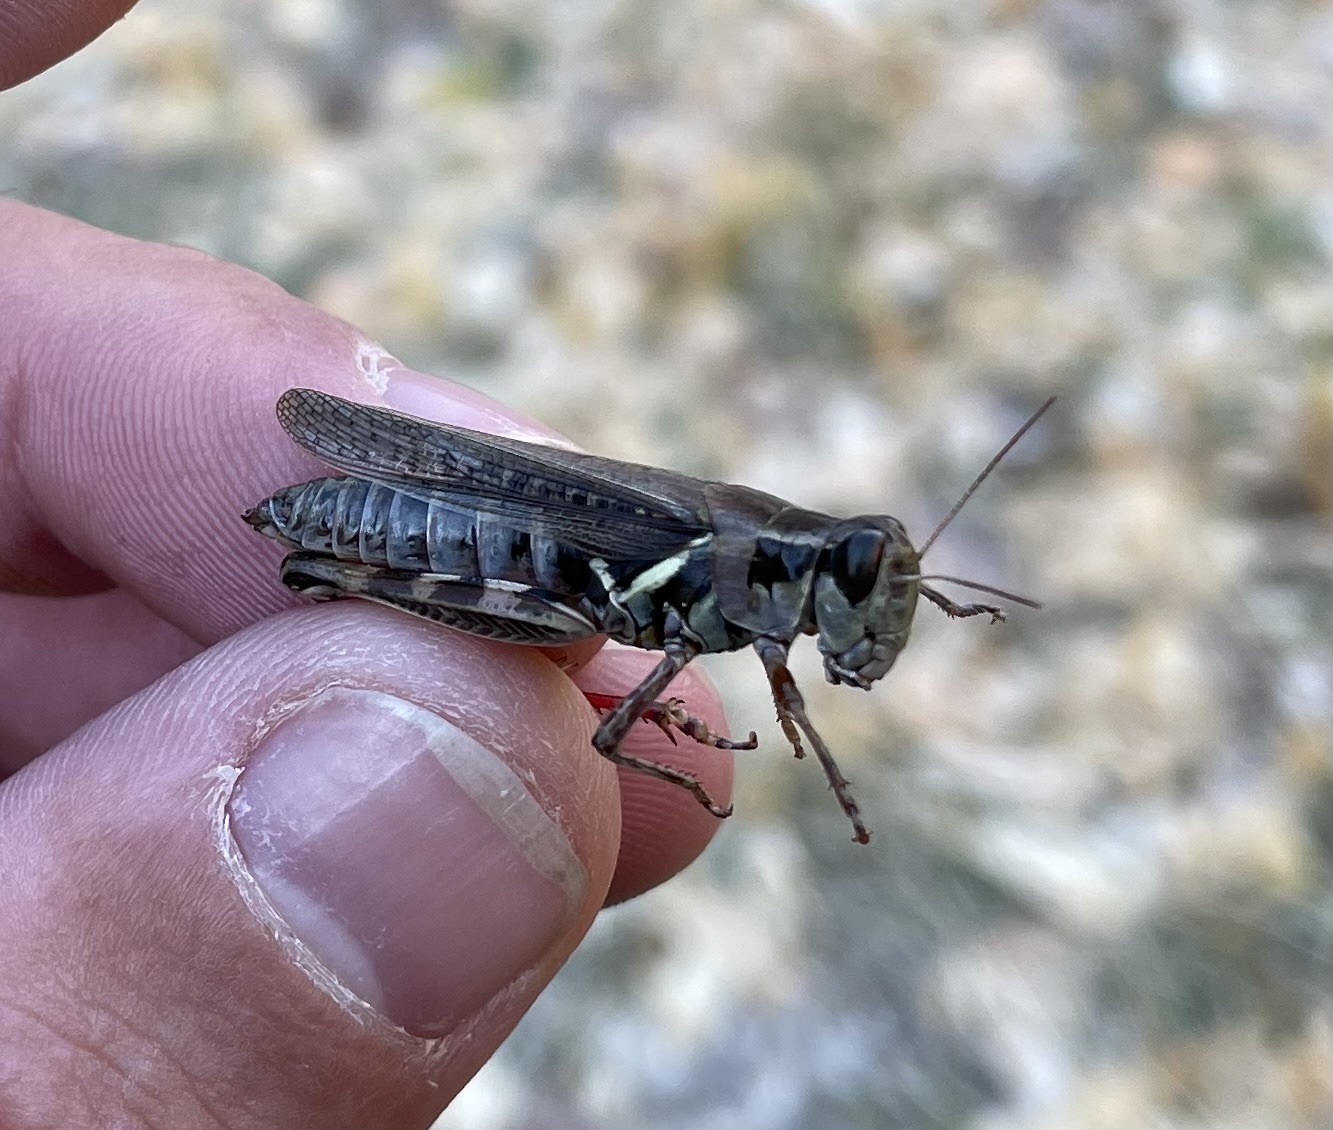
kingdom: Animalia
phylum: Arthropoda
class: Insecta
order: Orthoptera
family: Acrididae
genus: Melanoplus
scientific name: Melanoplus sanguinipes
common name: Migratory grasshopper
